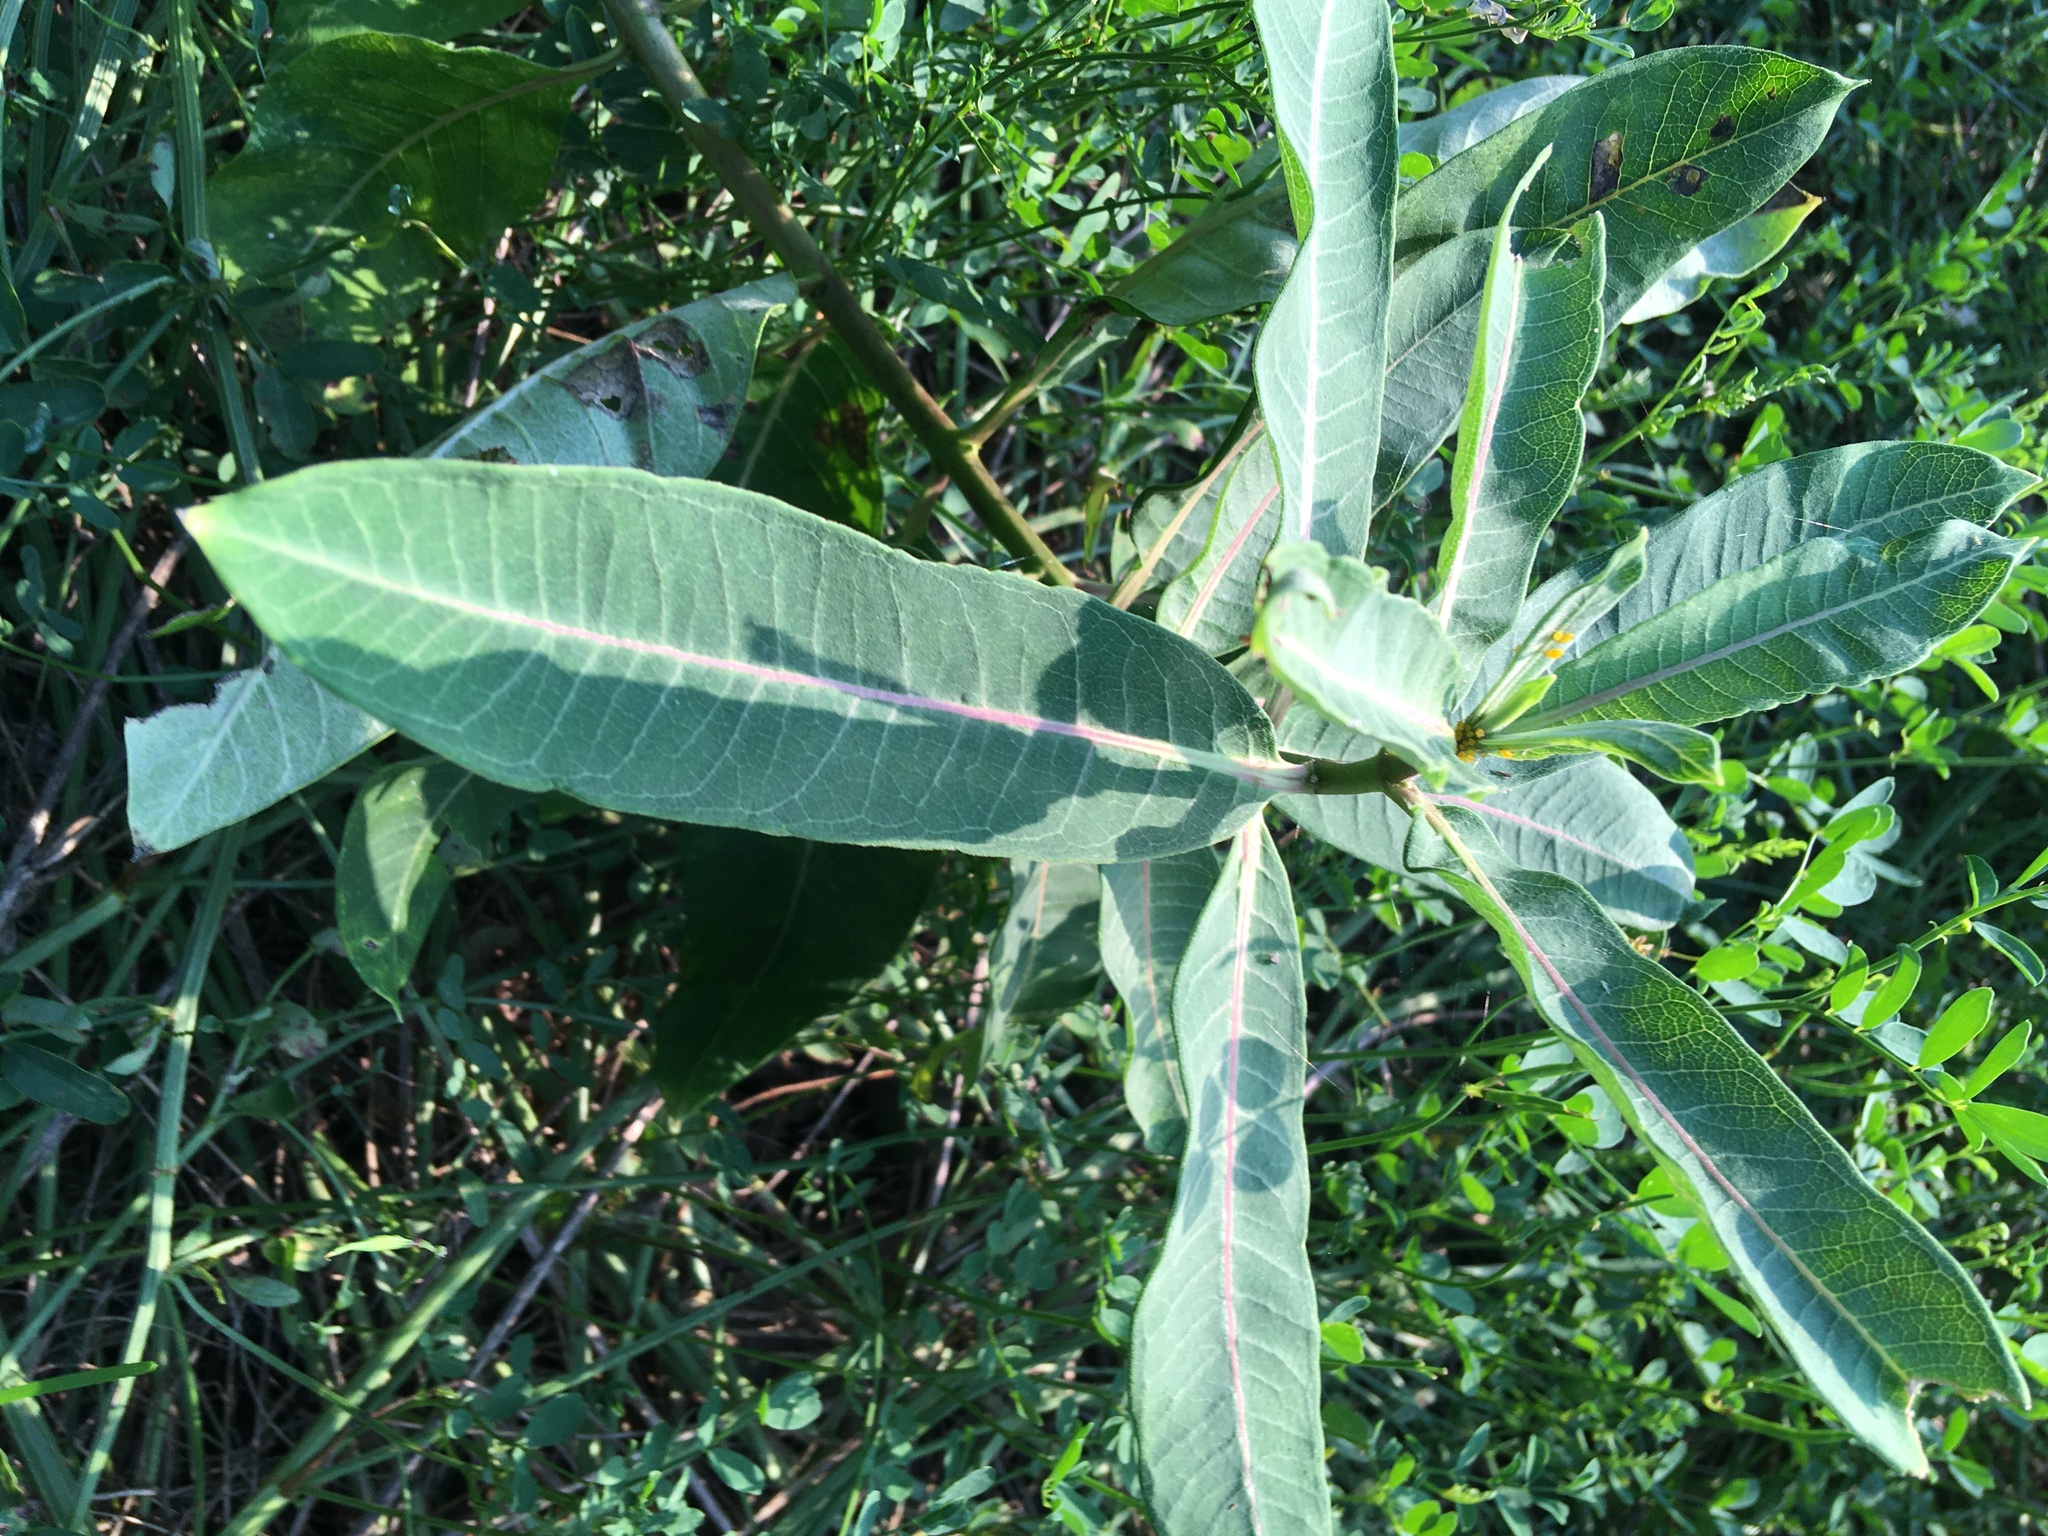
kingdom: Plantae
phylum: Tracheophyta
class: Magnoliopsida
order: Gentianales
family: Apocynaceae
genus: Asclepias
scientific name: Asclepias syriaca
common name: Common milkweed
